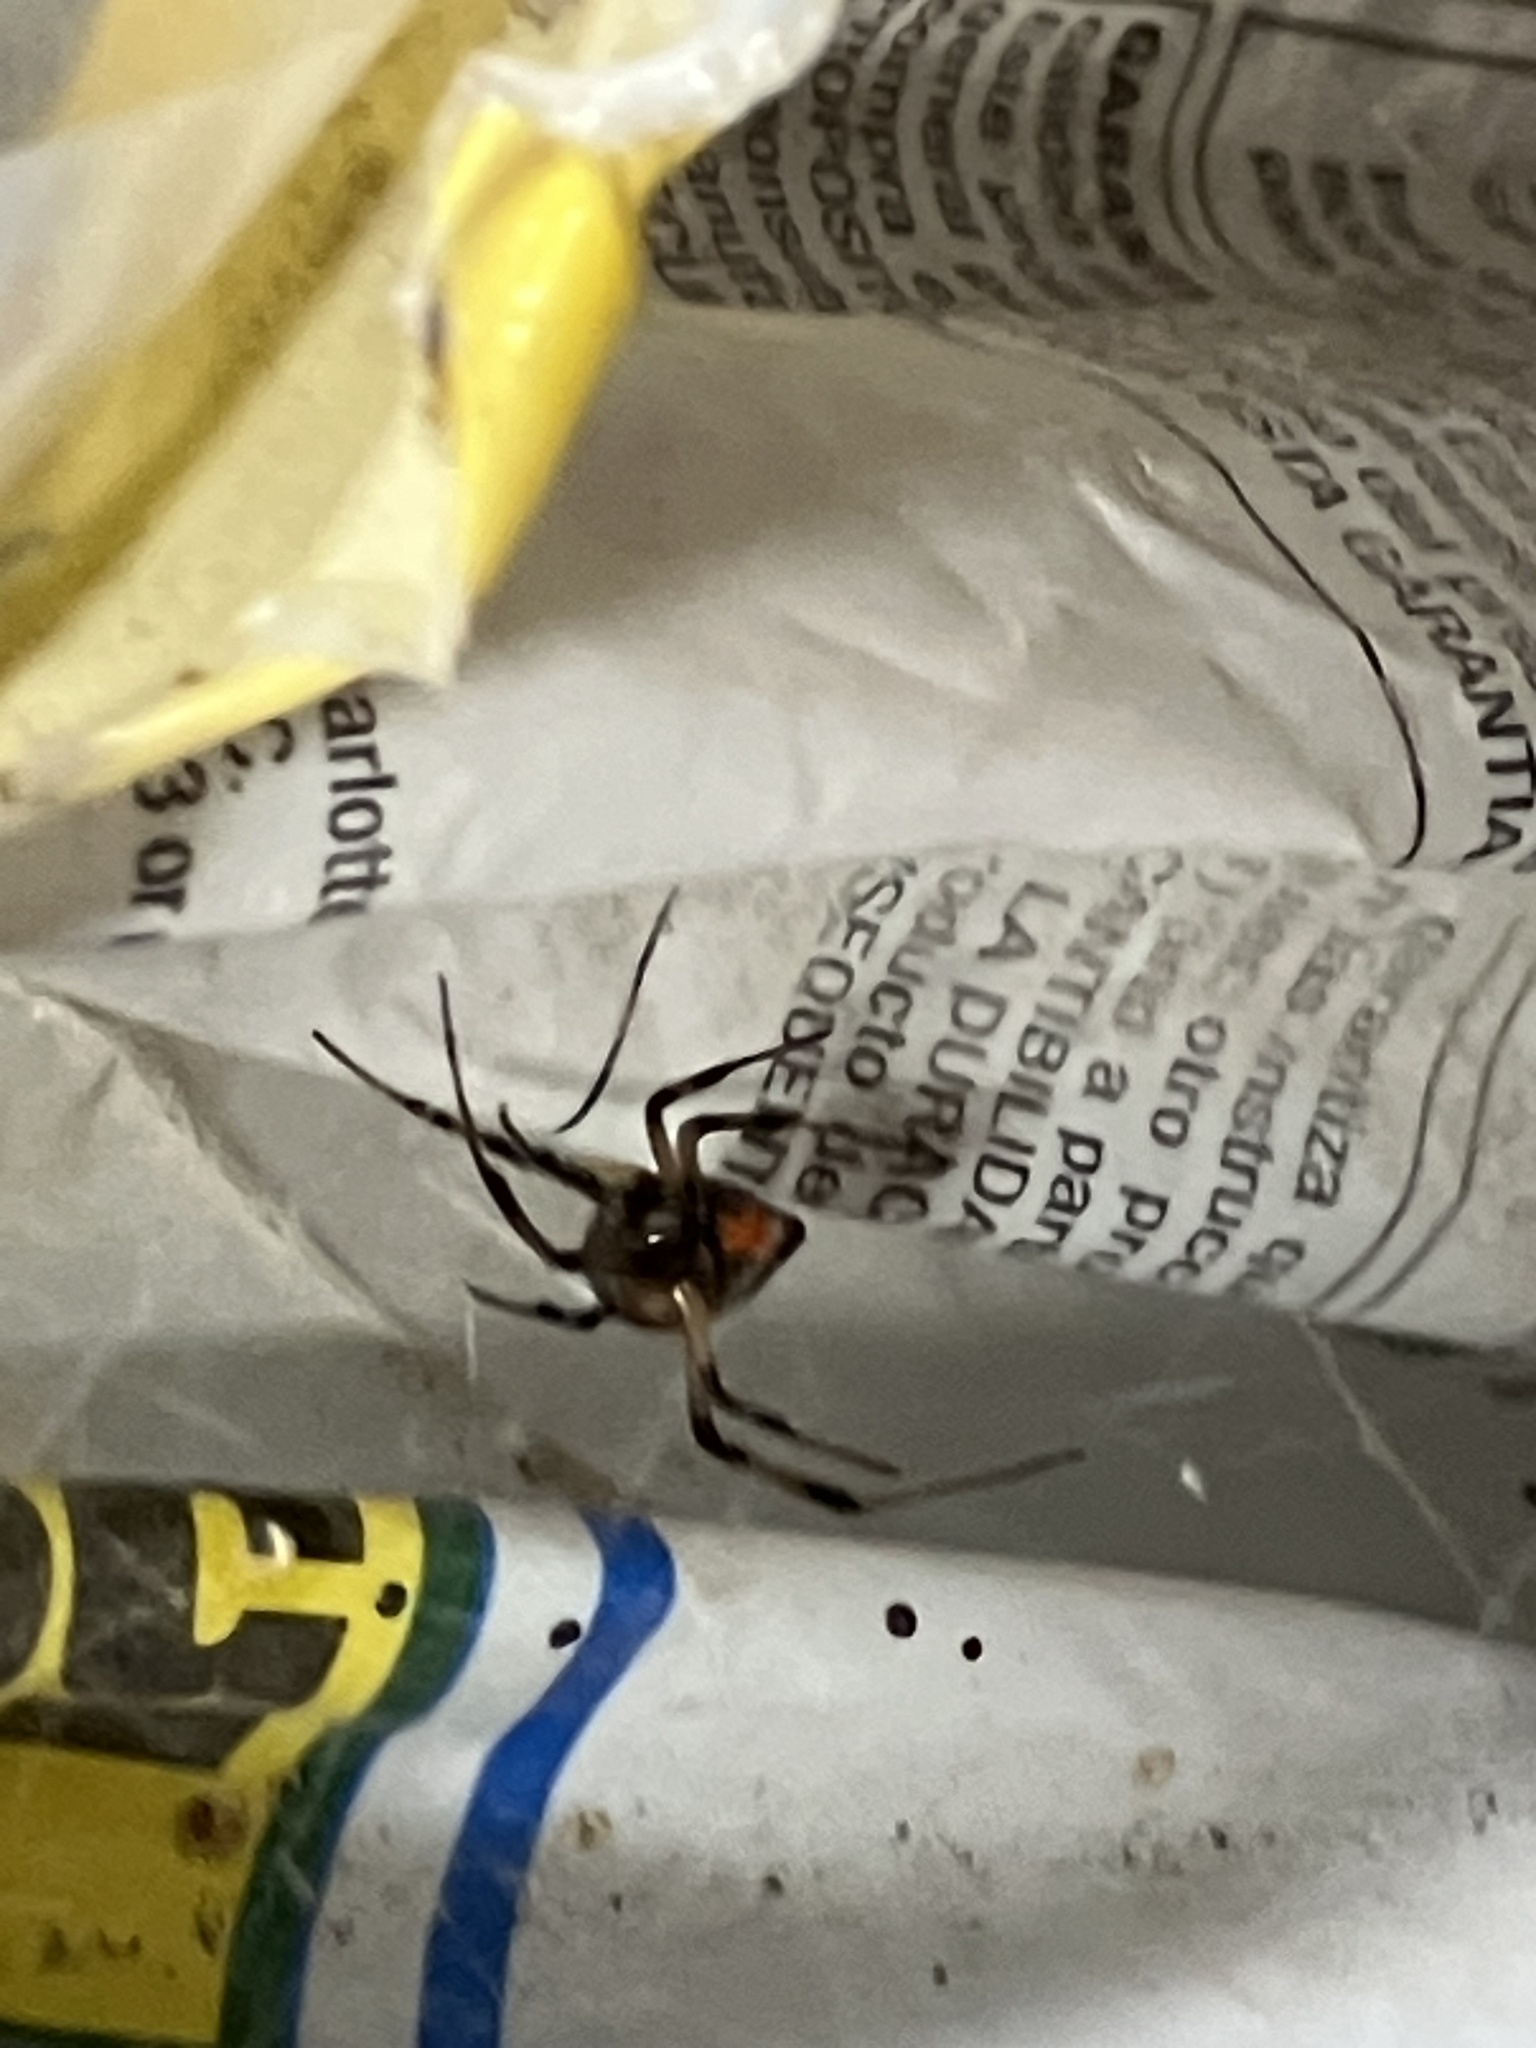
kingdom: Animalia
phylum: Arthropoda
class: Arachnida
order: Araneae
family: Theridiidae
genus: Latrodectus
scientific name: Latrodectus geometricus
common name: Brown widow spider
